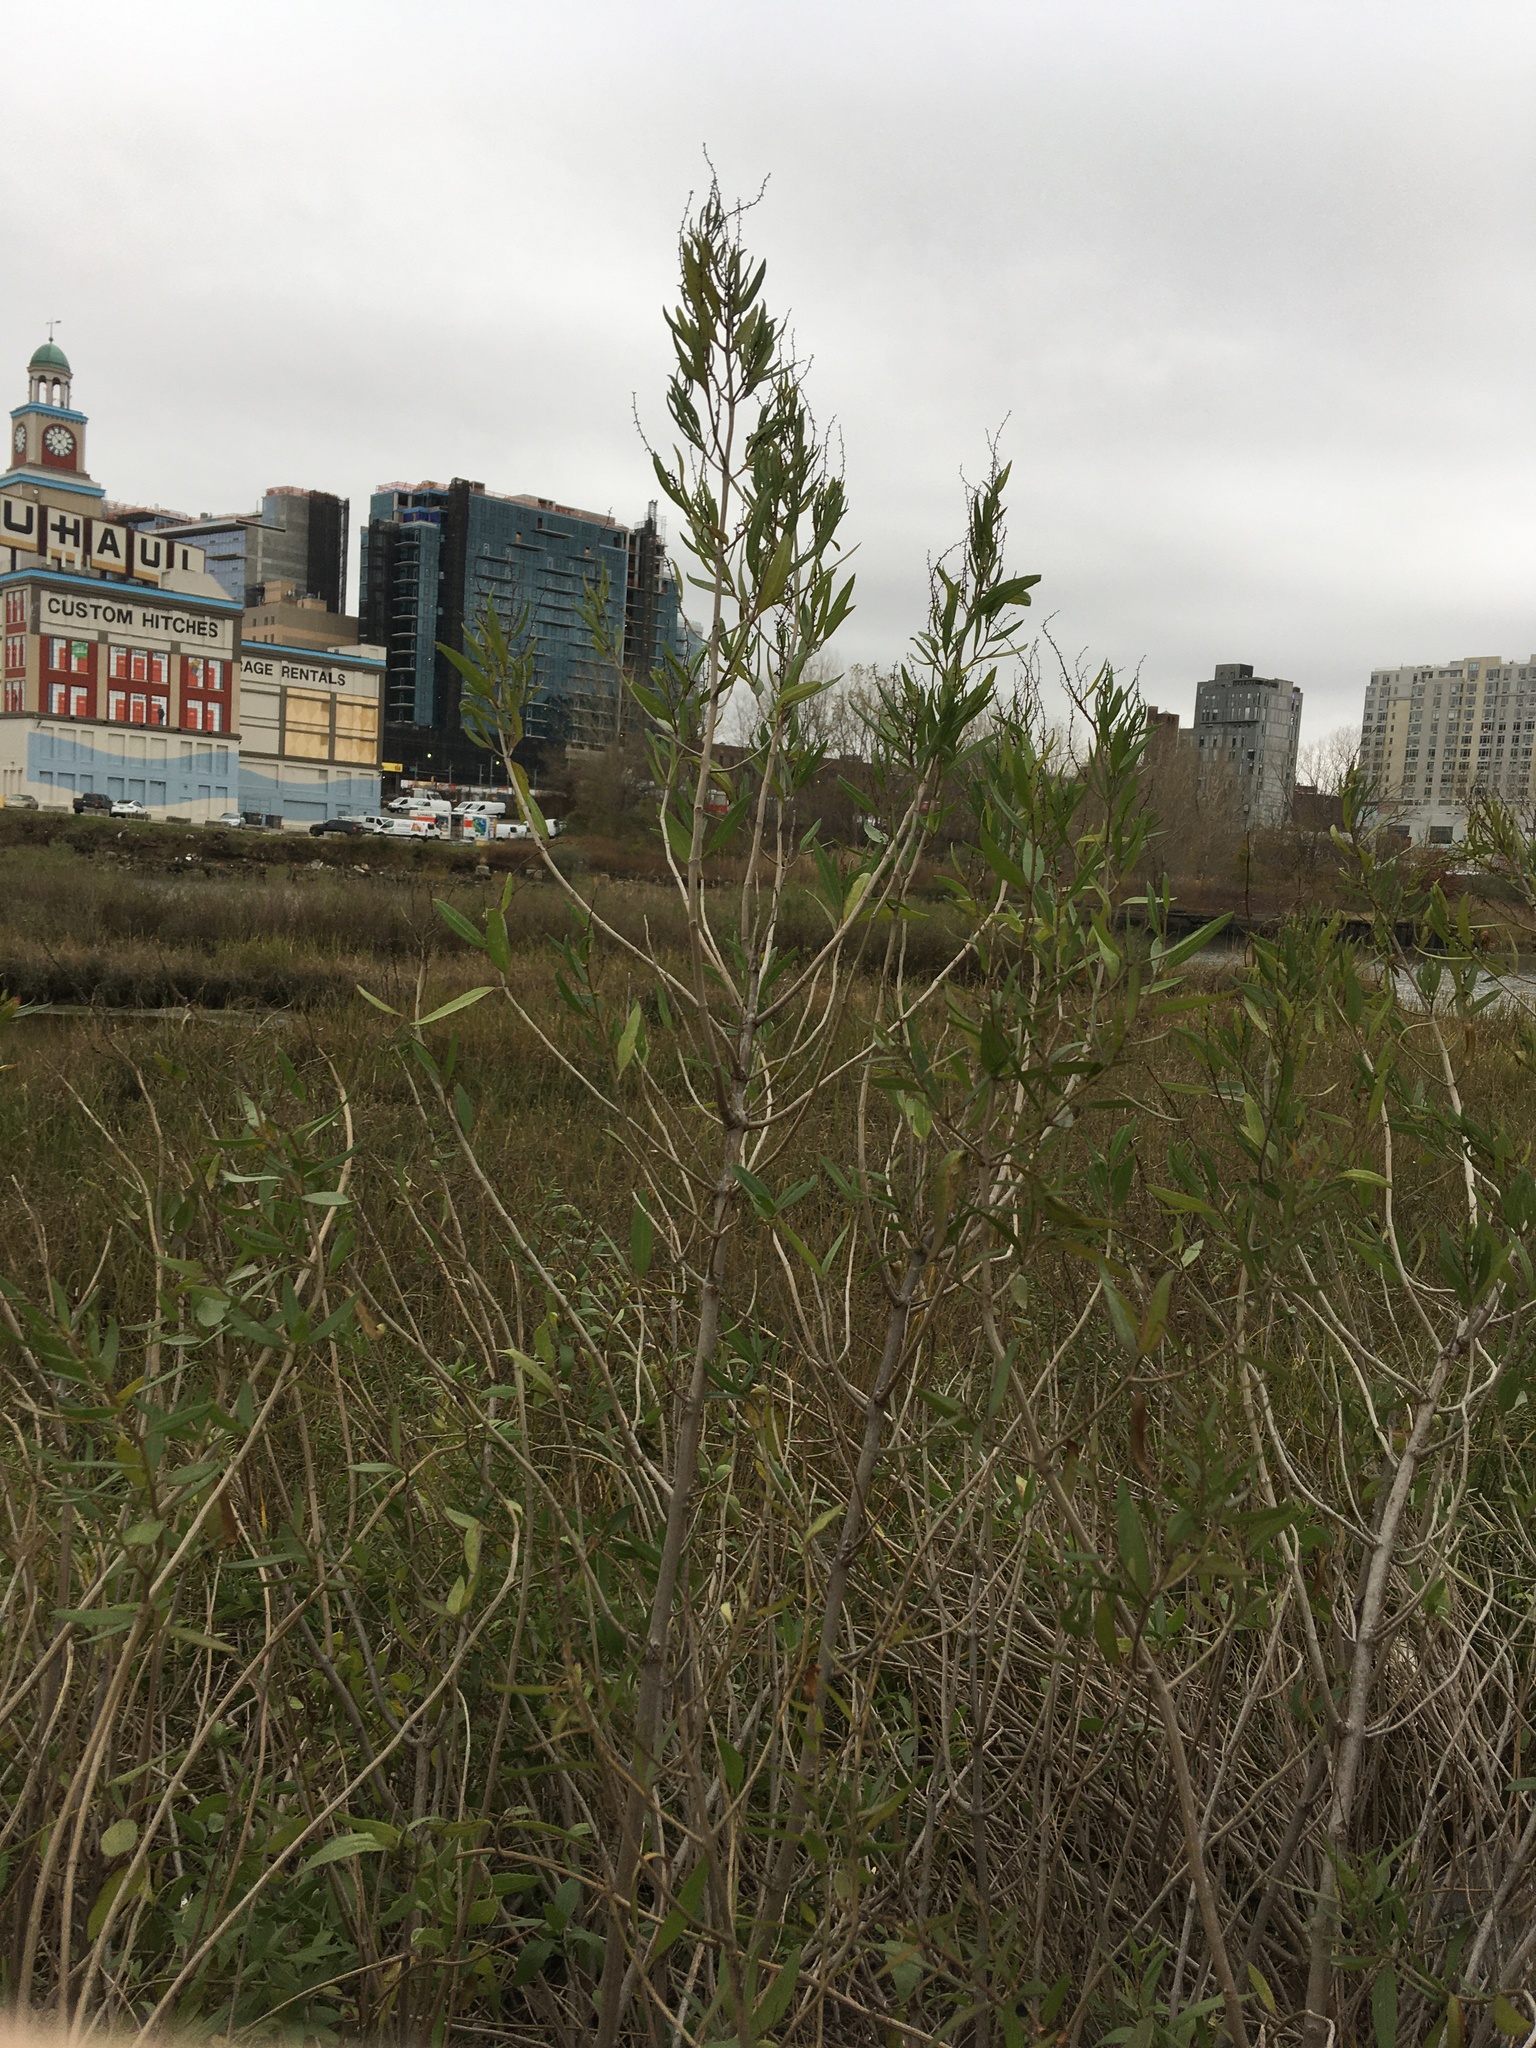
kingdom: Plantae
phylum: Tracheophyta
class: Magnoliopsida
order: Asterales
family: Asteraceae
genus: Iva
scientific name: Iva frutescens
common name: Big-leaved marsh-elder
